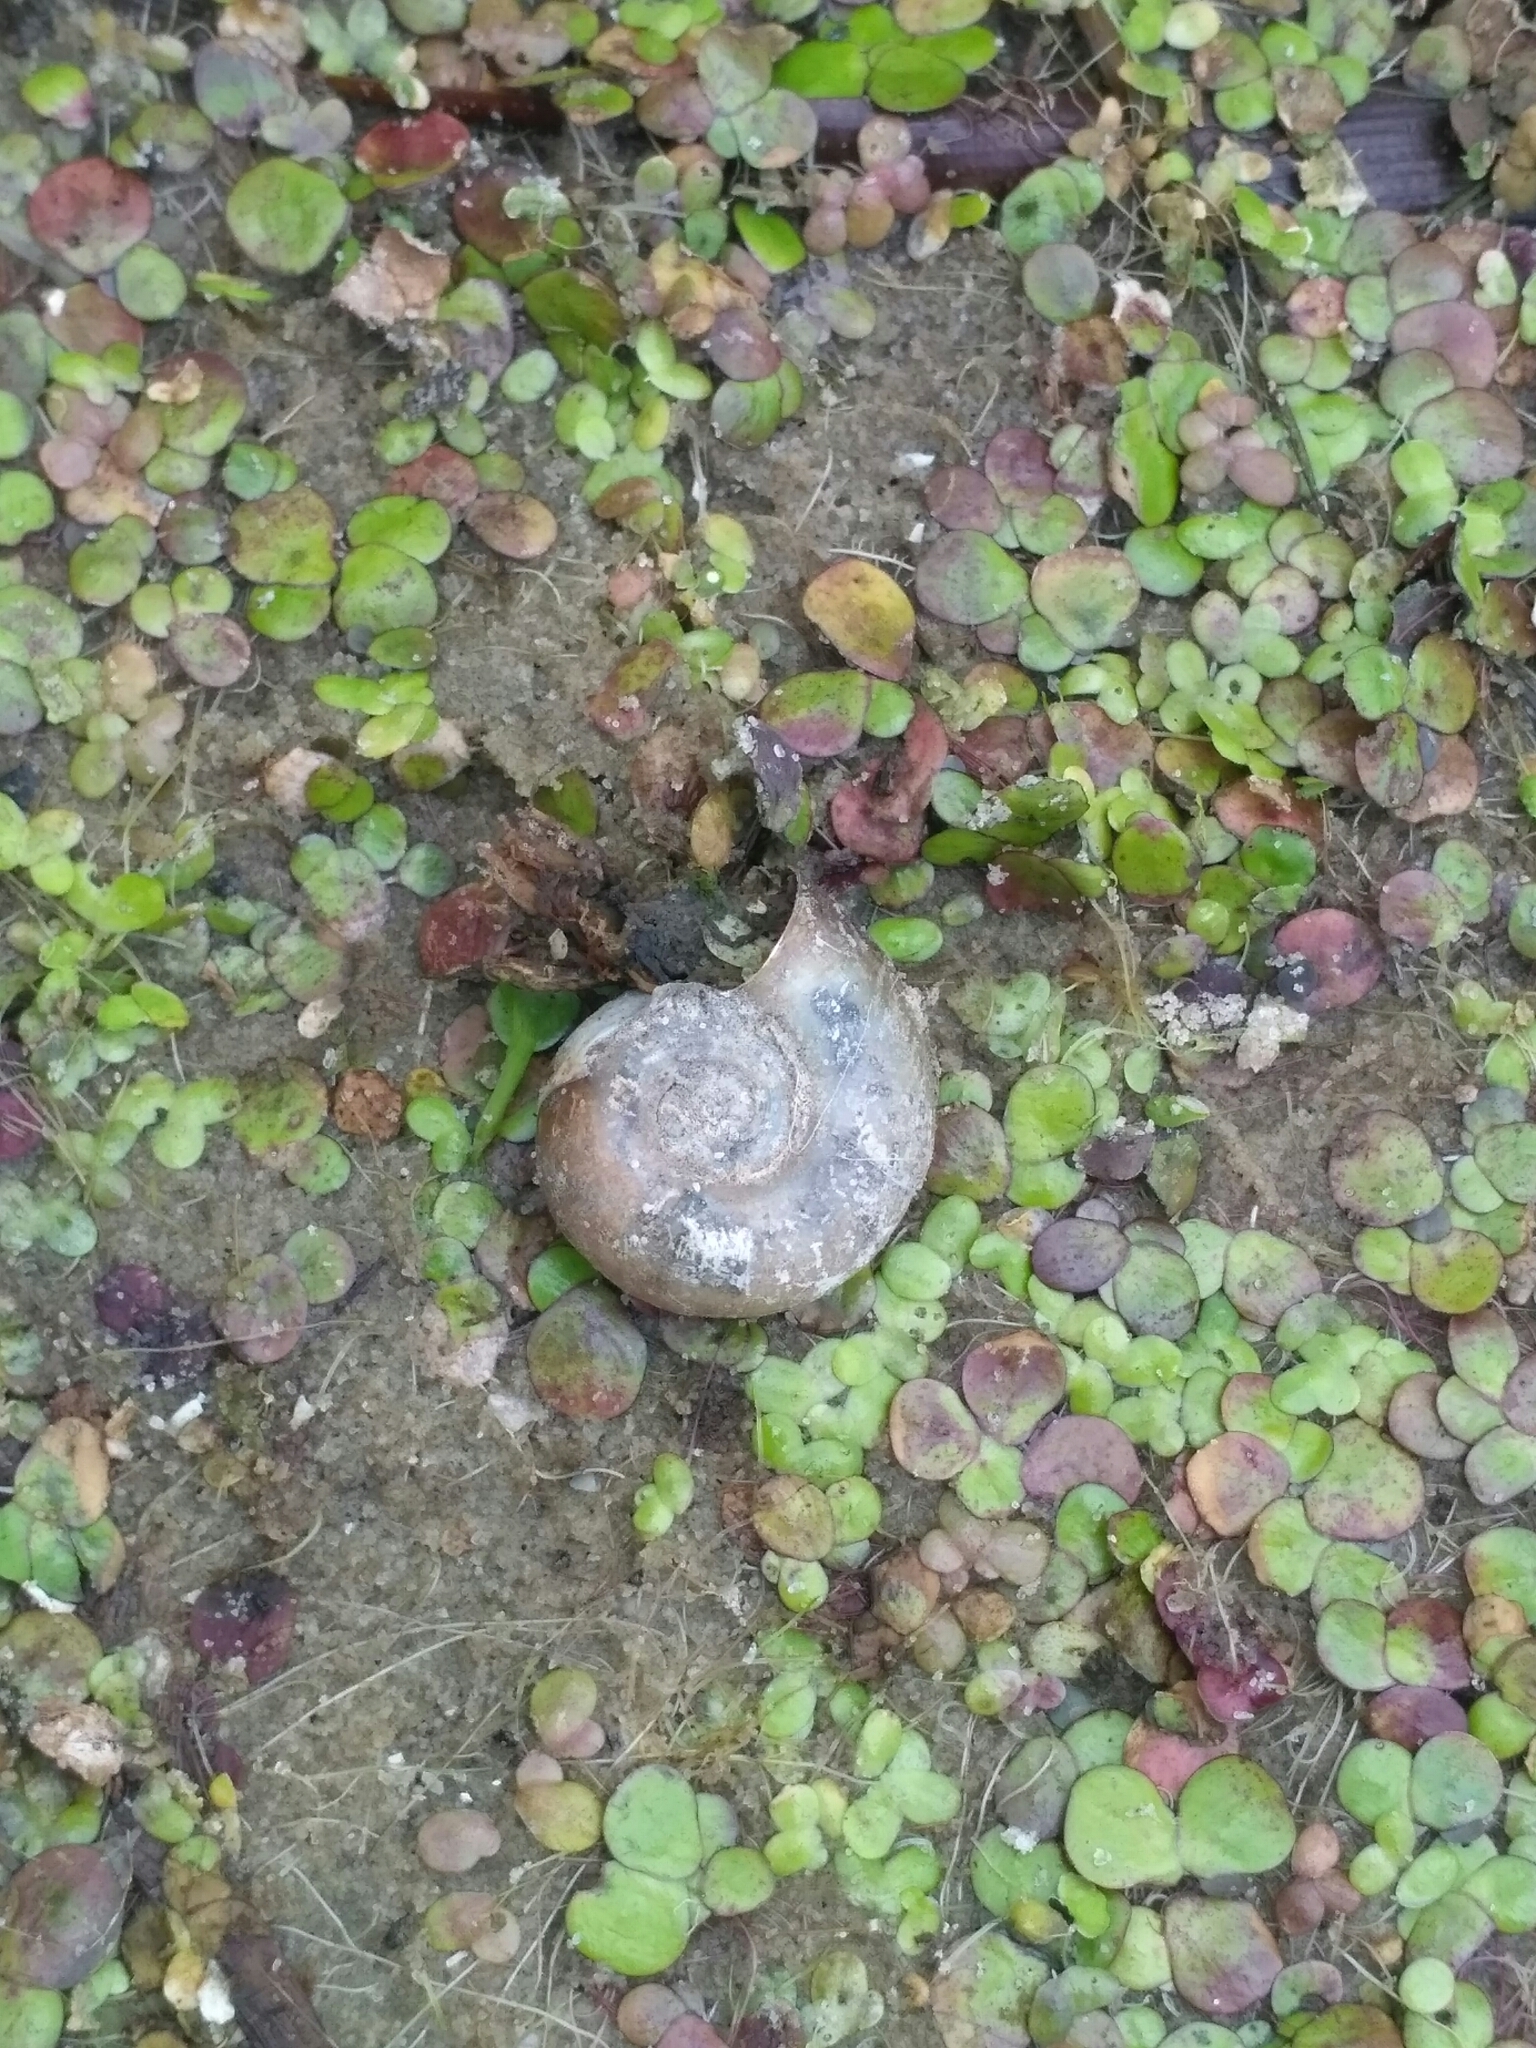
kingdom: Animalia
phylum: Mollusca
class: Gastropoda
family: Planorbidae
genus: Planorbarius
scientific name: Planorbarius corneus
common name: Great ramshorn
